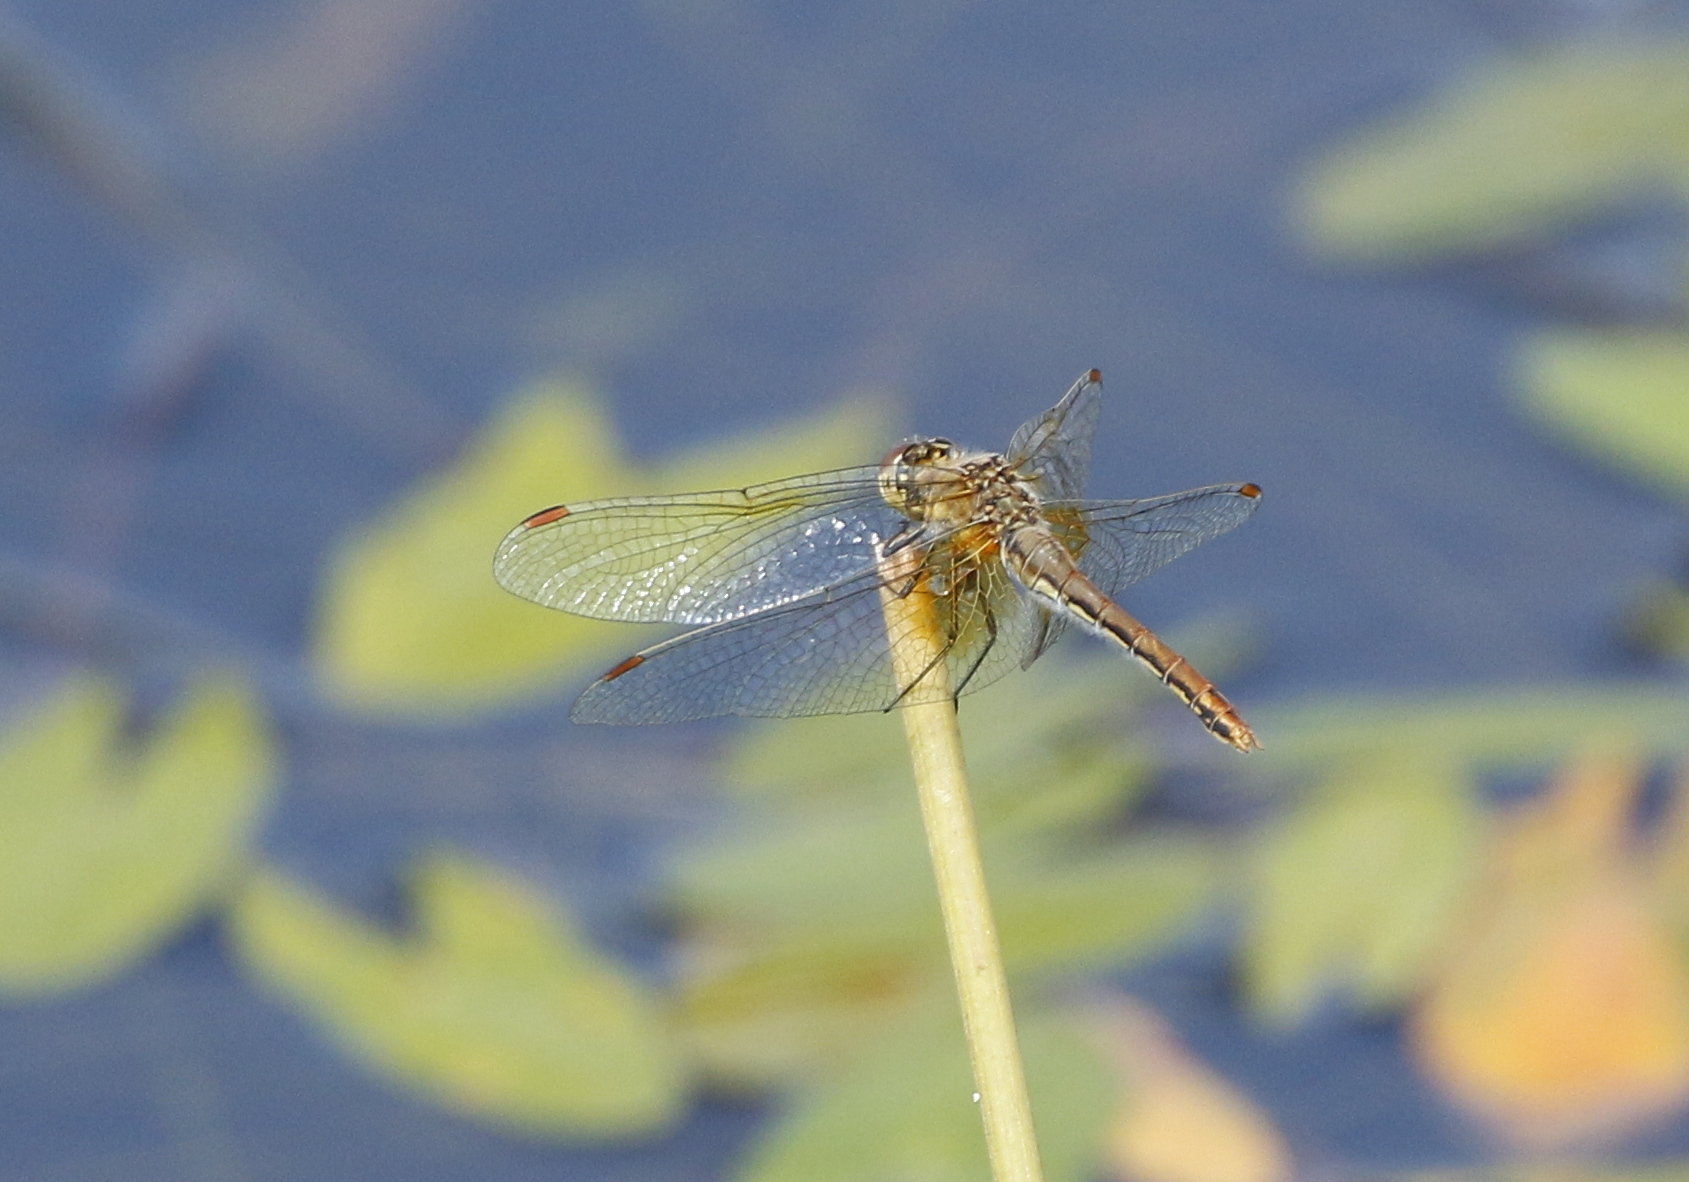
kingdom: Animalia
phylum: Arthropoda
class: Insecta
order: Odonata
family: Libellulidae
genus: Sympetrum
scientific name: Sympetrum flaveolum
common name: Yellow-winged darter
